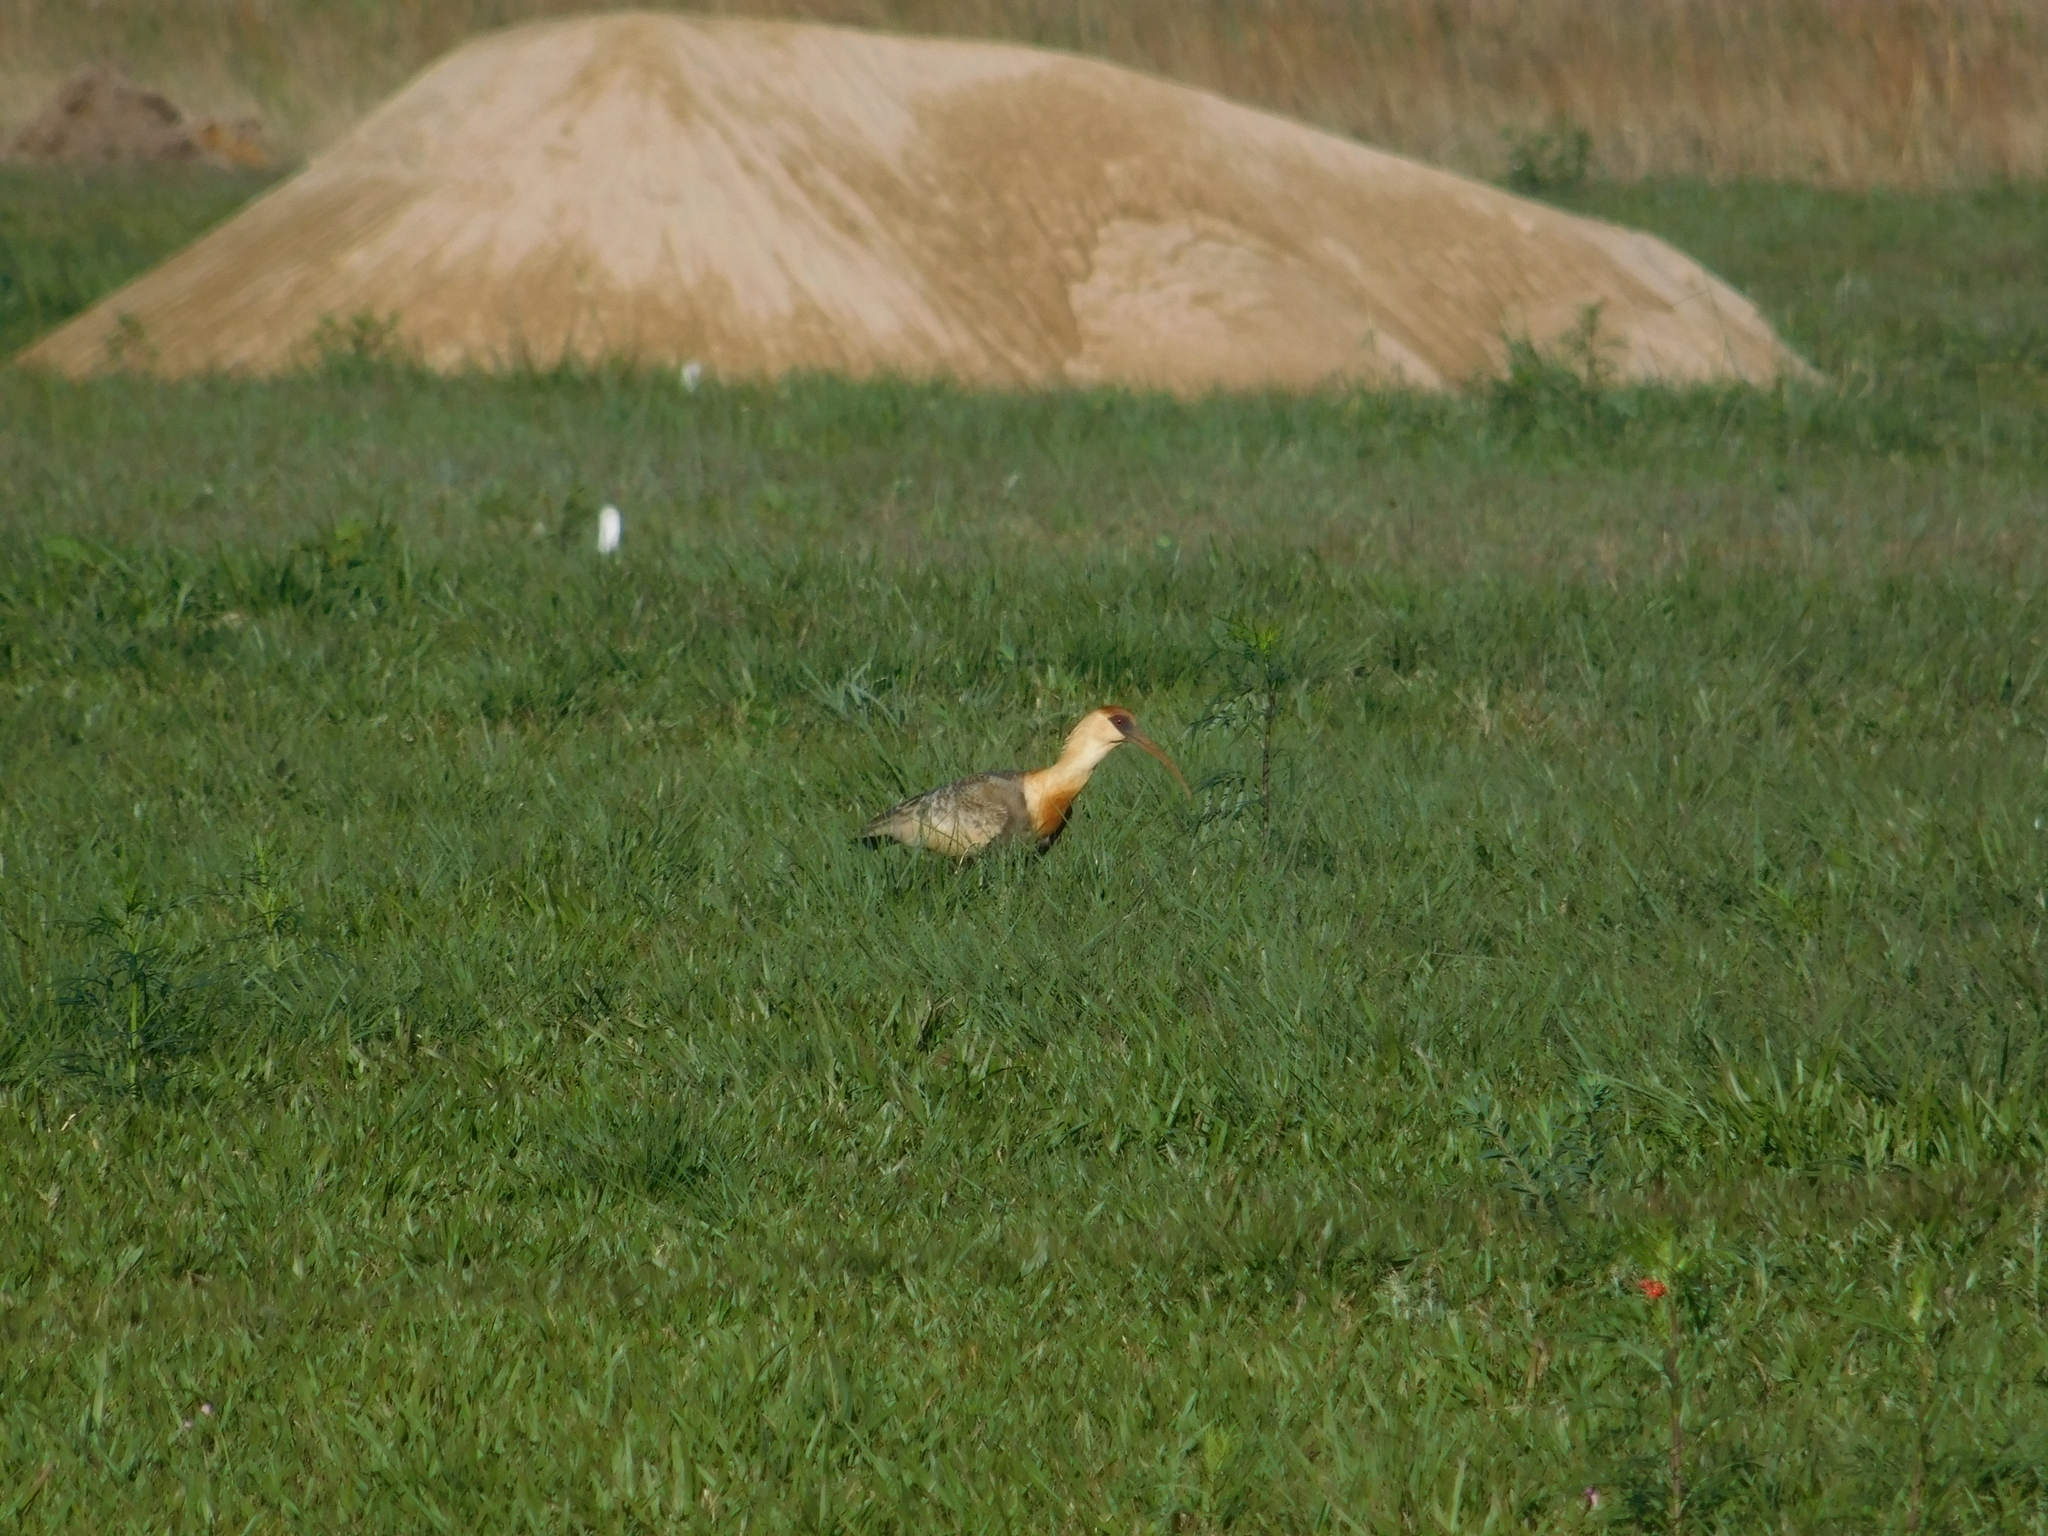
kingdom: Animalia
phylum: Chordata
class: Aves
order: Pelecaniformes
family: Threskiornithidae
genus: Theristicus
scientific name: Theristicus caudatus
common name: Buff-necked ibis
